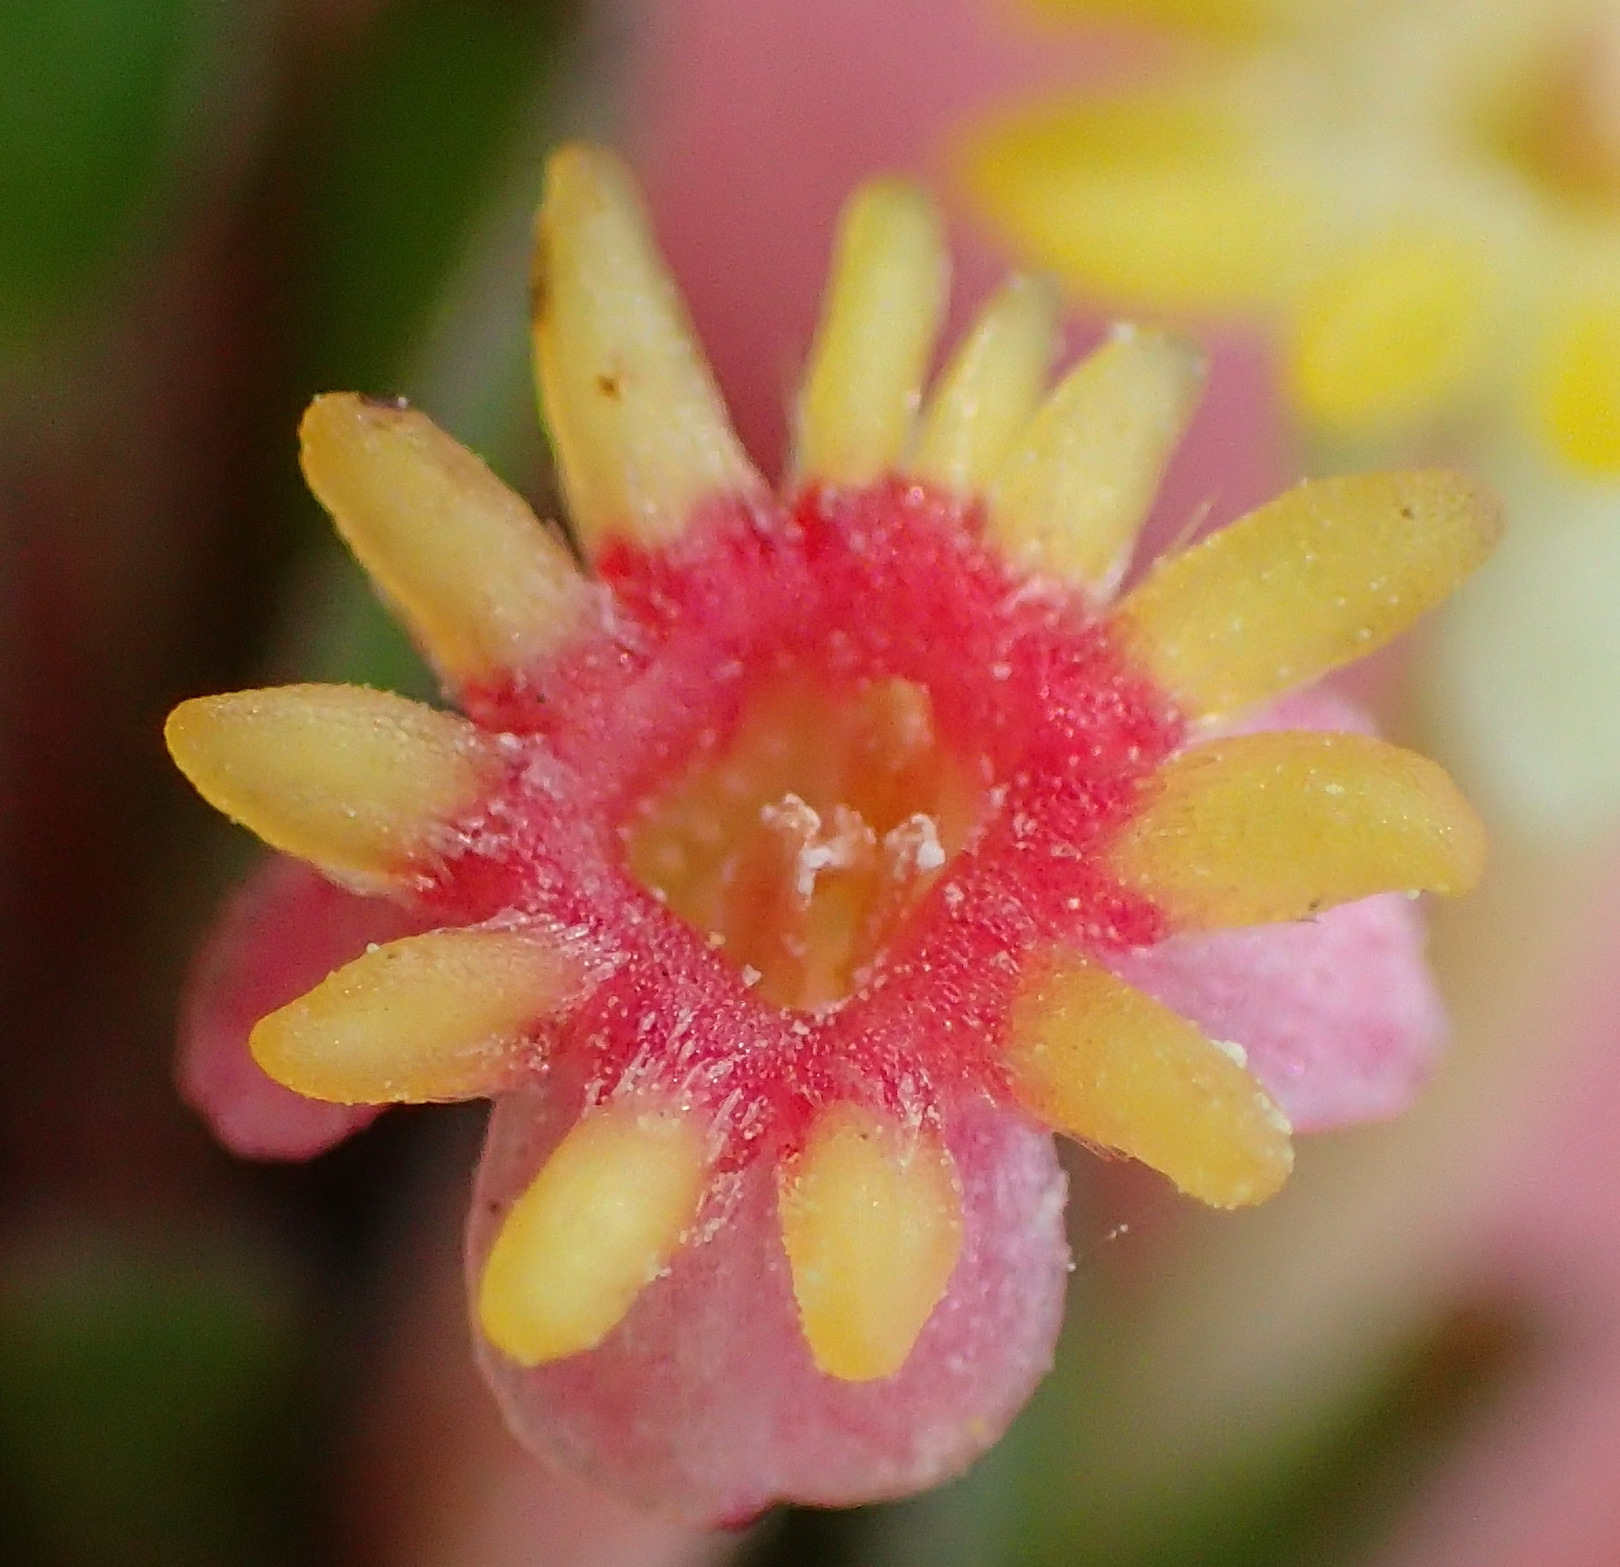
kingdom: Plantae
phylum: Tracheophyta
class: Magnoliopsida
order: Malvales
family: Thymelaeaceae
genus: Struthiola
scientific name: Struthiola argentea
